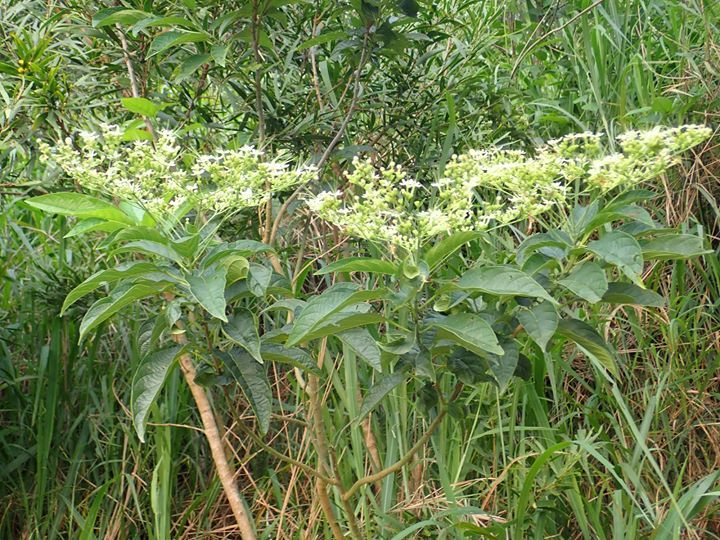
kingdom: Plantae
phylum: Tracheophyta
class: Magnoliopsida
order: Lamiales
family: Lamiaceae
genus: Clerodendrum
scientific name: Clerodendrum cyrtophyllum
